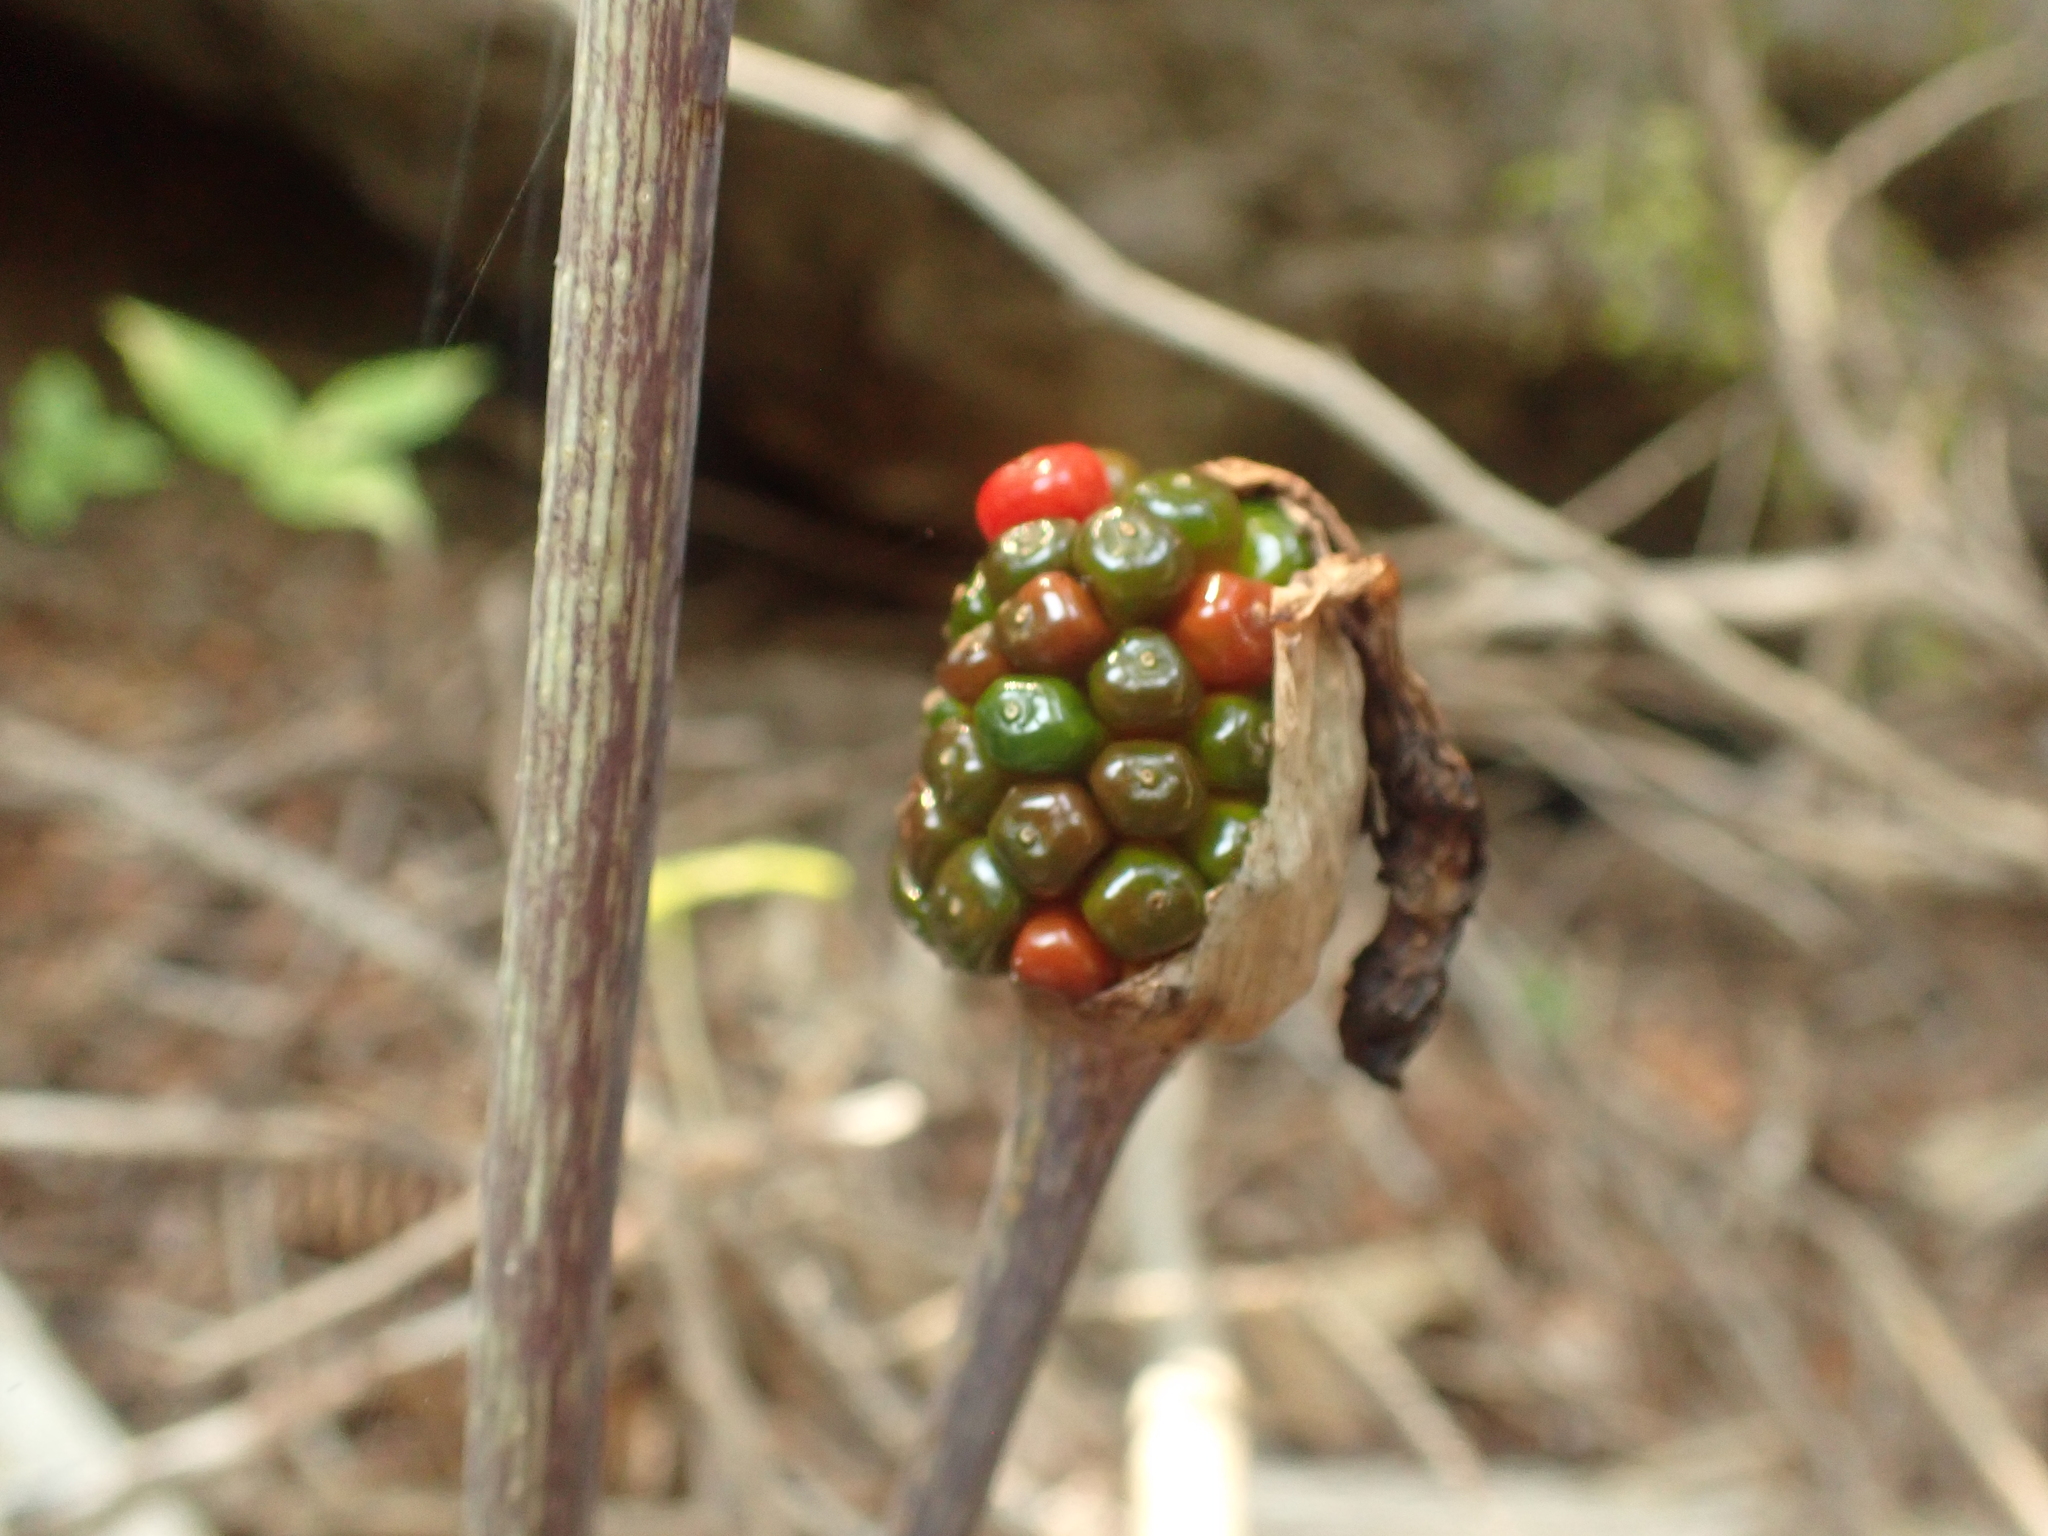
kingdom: Plantae
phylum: Tracheophyta
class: Liliopsida
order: Alismatales
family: Araceae
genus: Arisaema
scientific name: Arisaema triphyllum
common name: Jack-in-the-pulpit
